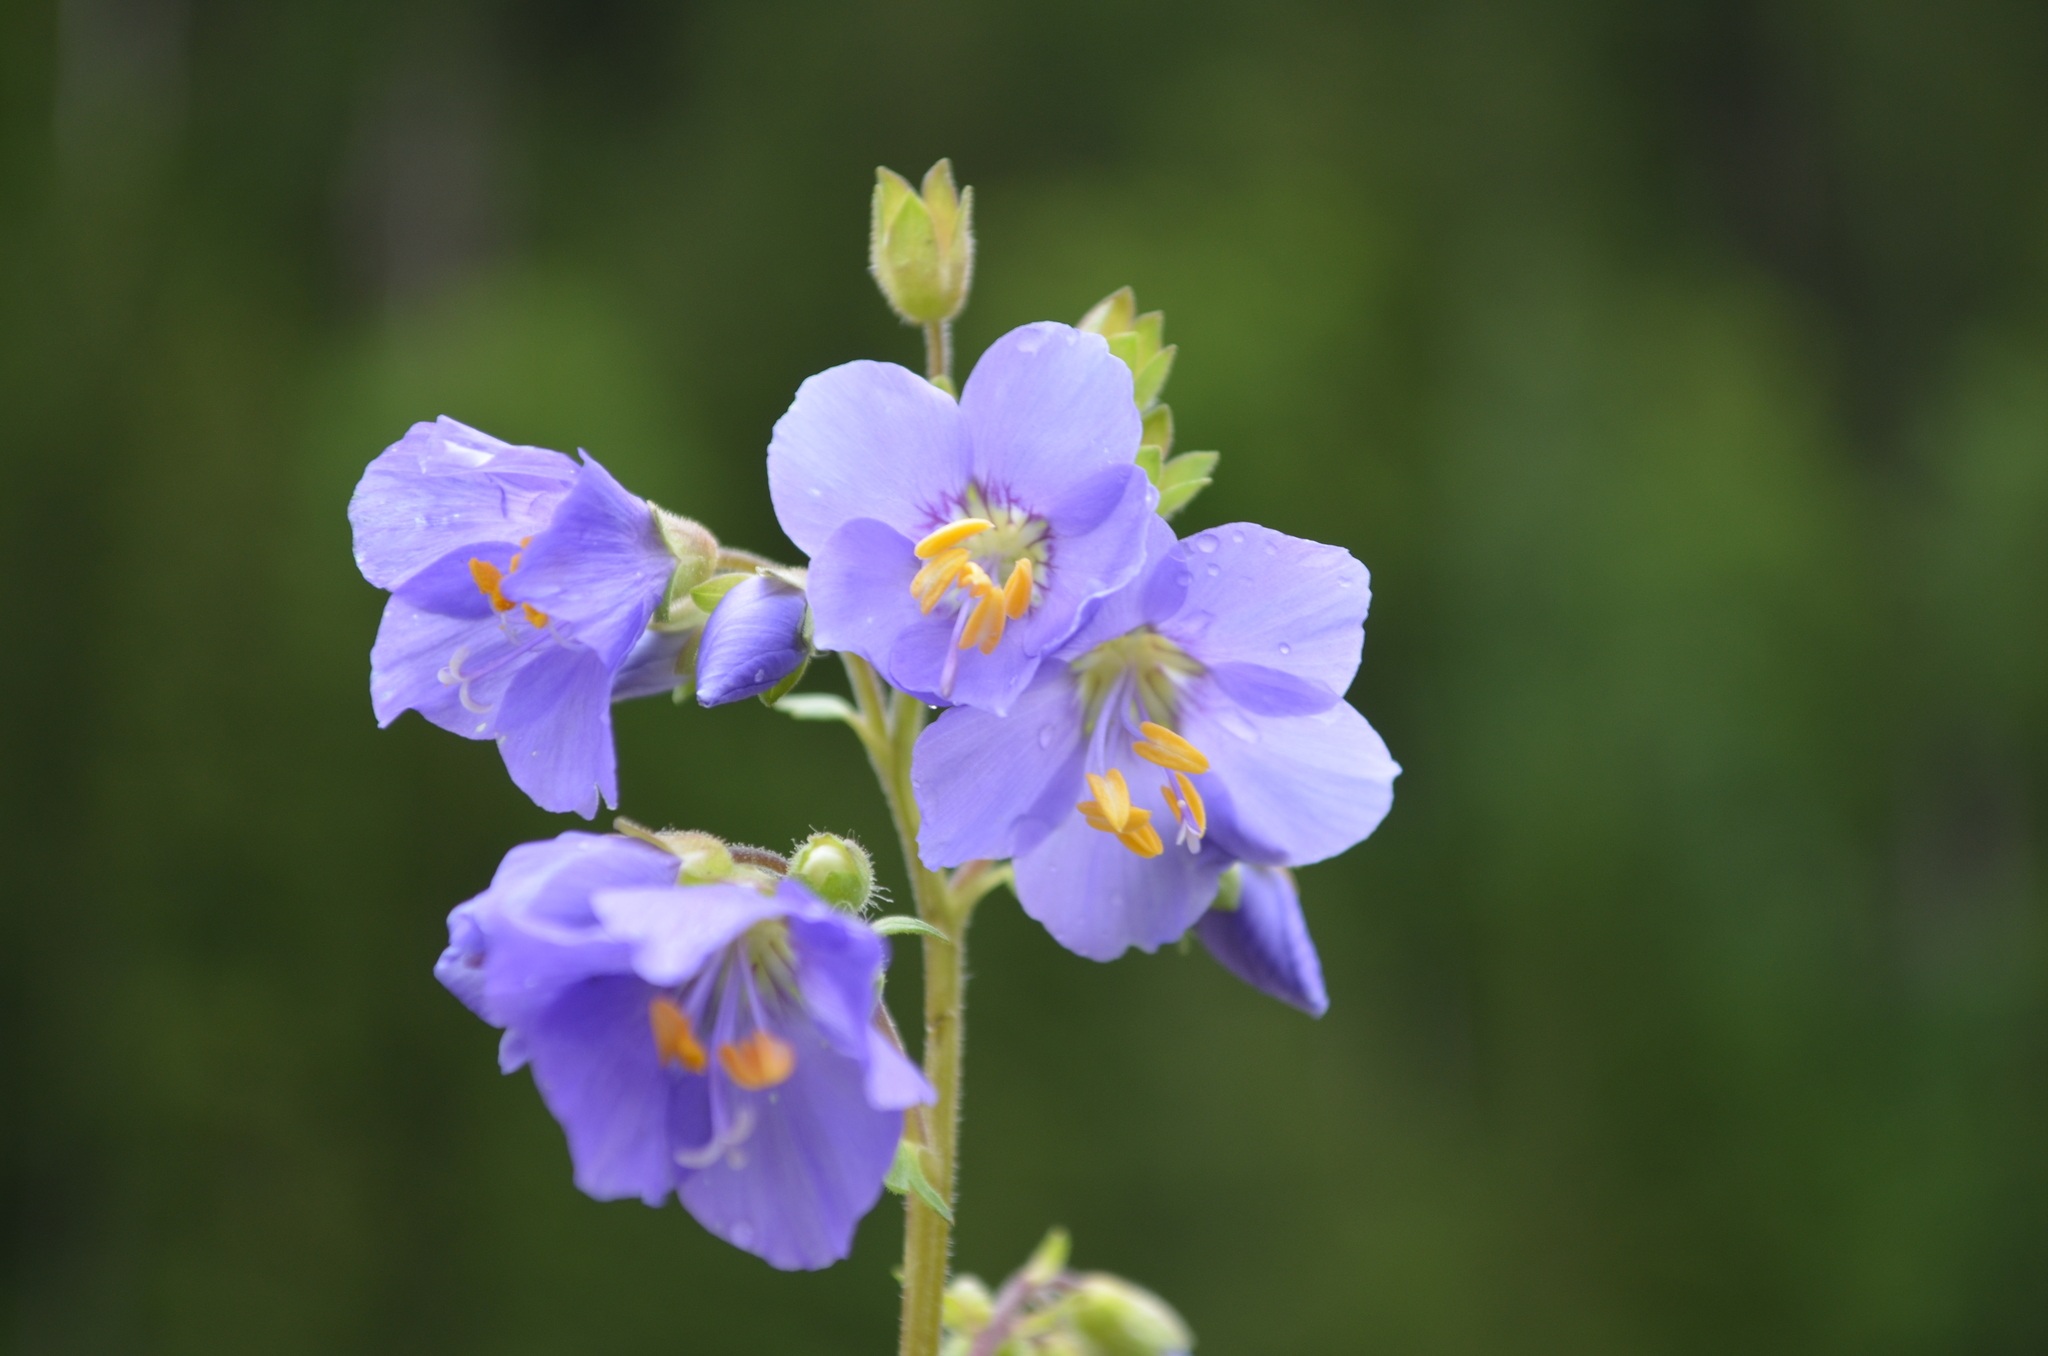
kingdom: Plantae
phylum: Tracheophyta
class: Magnoliopsida
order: Ericales
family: Polemoniaceae
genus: Polemonium
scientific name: Polemonium caeruleum
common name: Jacob's-ladder
